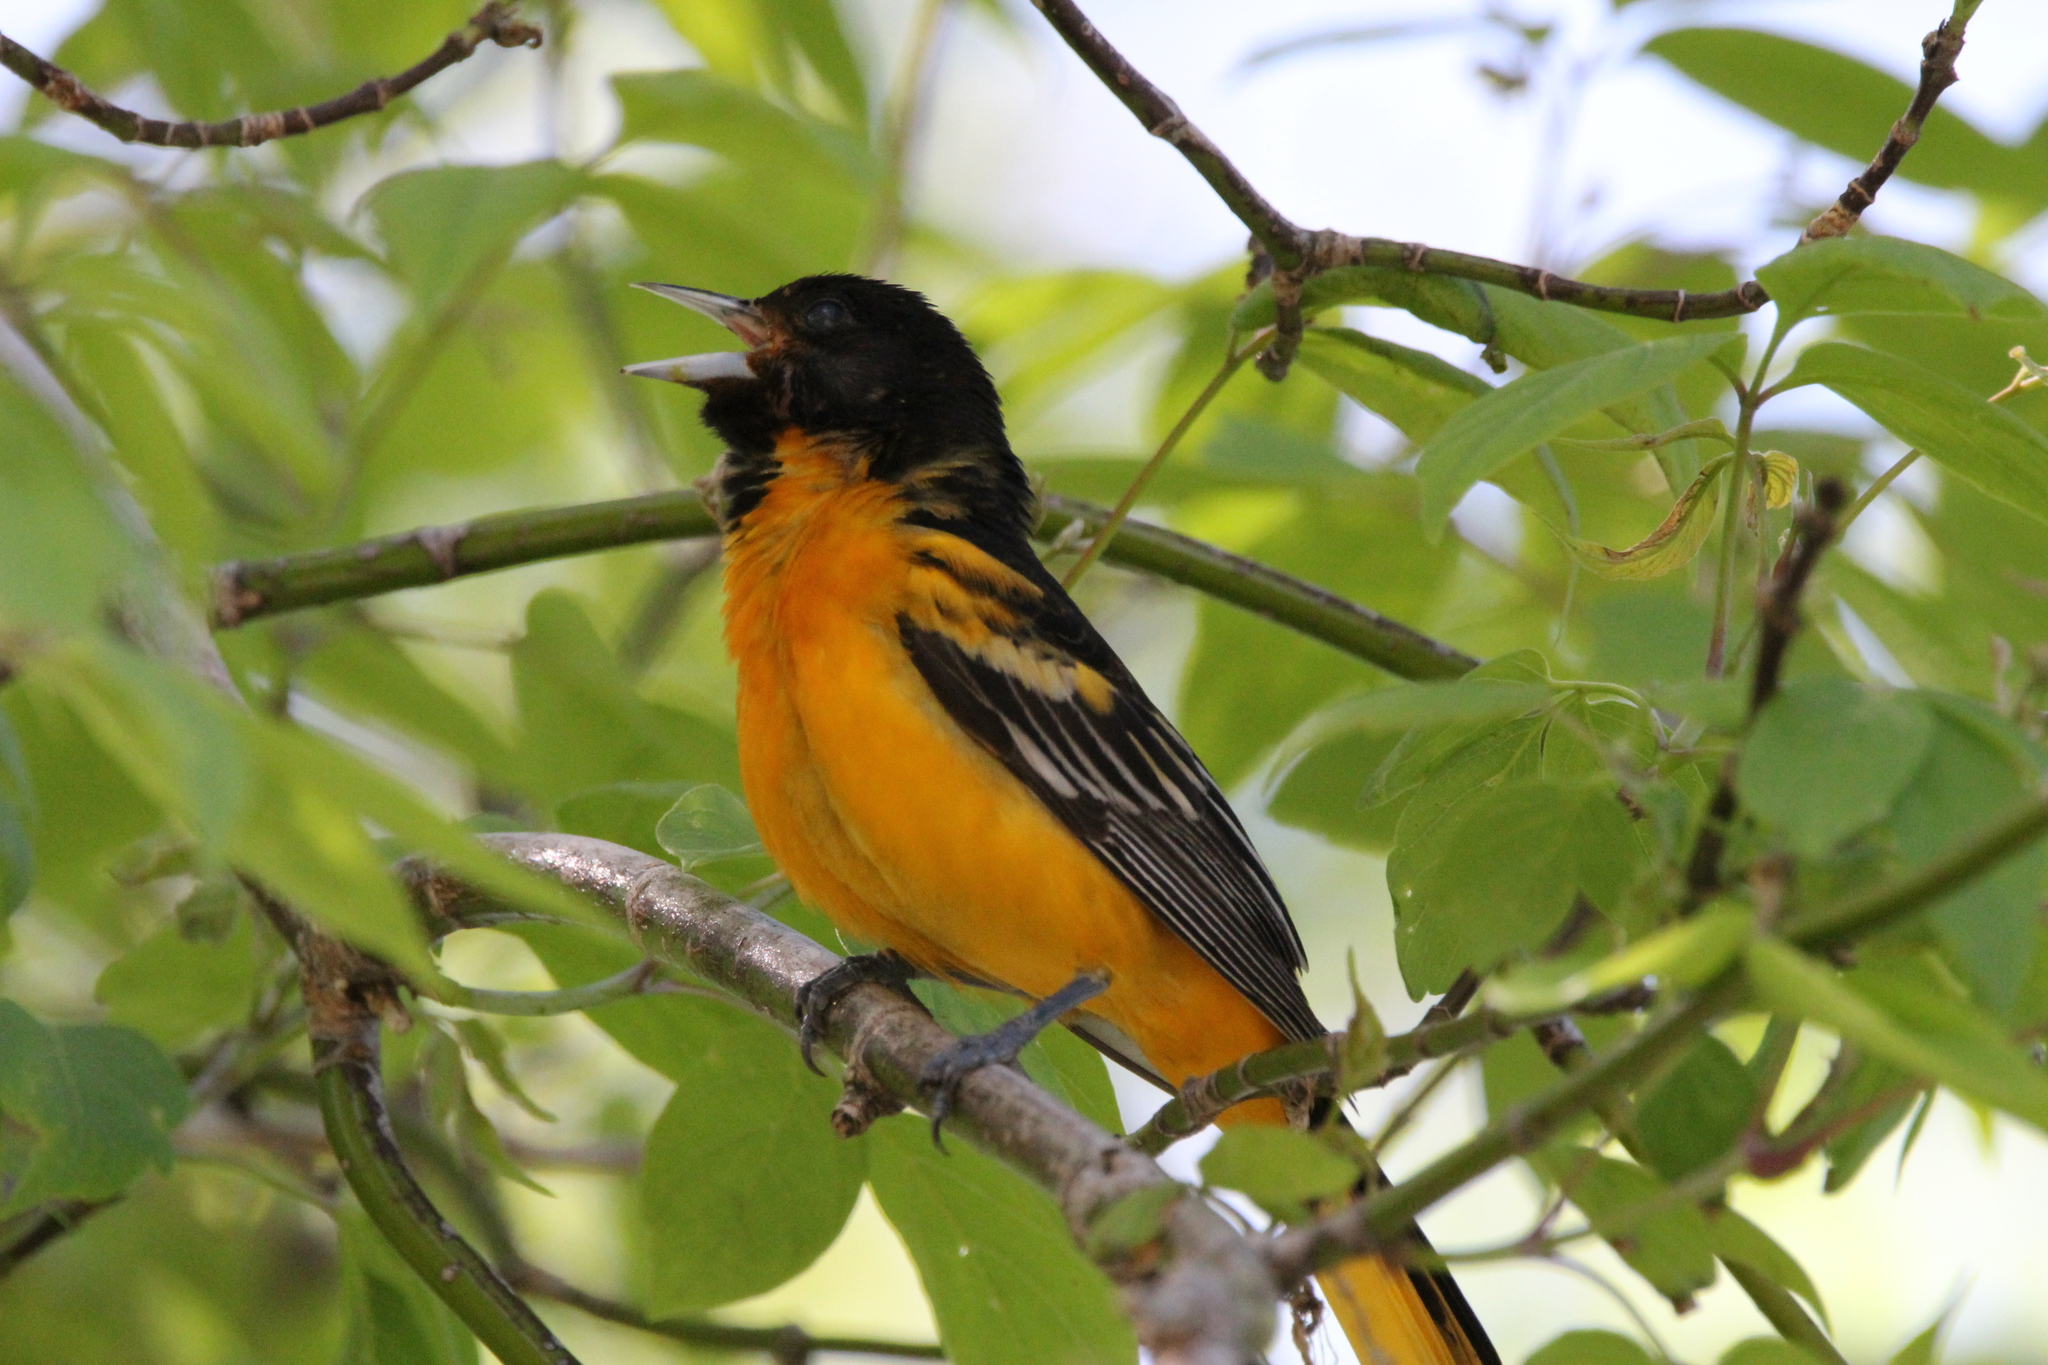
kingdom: Animalia
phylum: Chordata
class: Aves
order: Passeriformes
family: Icteridae
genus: Icterus
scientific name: Icterus galbula
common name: Baltimore oriole
